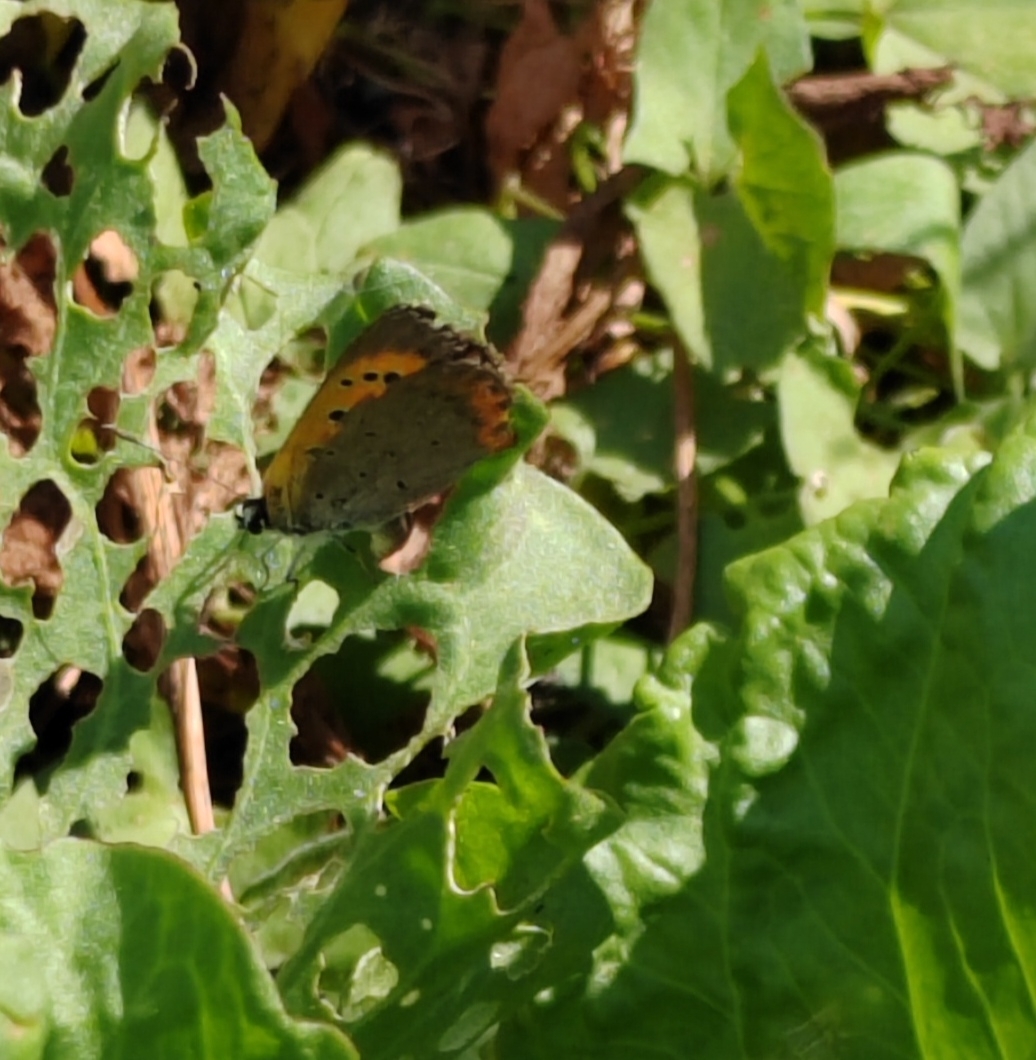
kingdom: Animalia
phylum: Arthropoda
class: Insecta
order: Lepidoptera
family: Lycaenidae
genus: Lycaena
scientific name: Lycaena phlaeas
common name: Small copper
